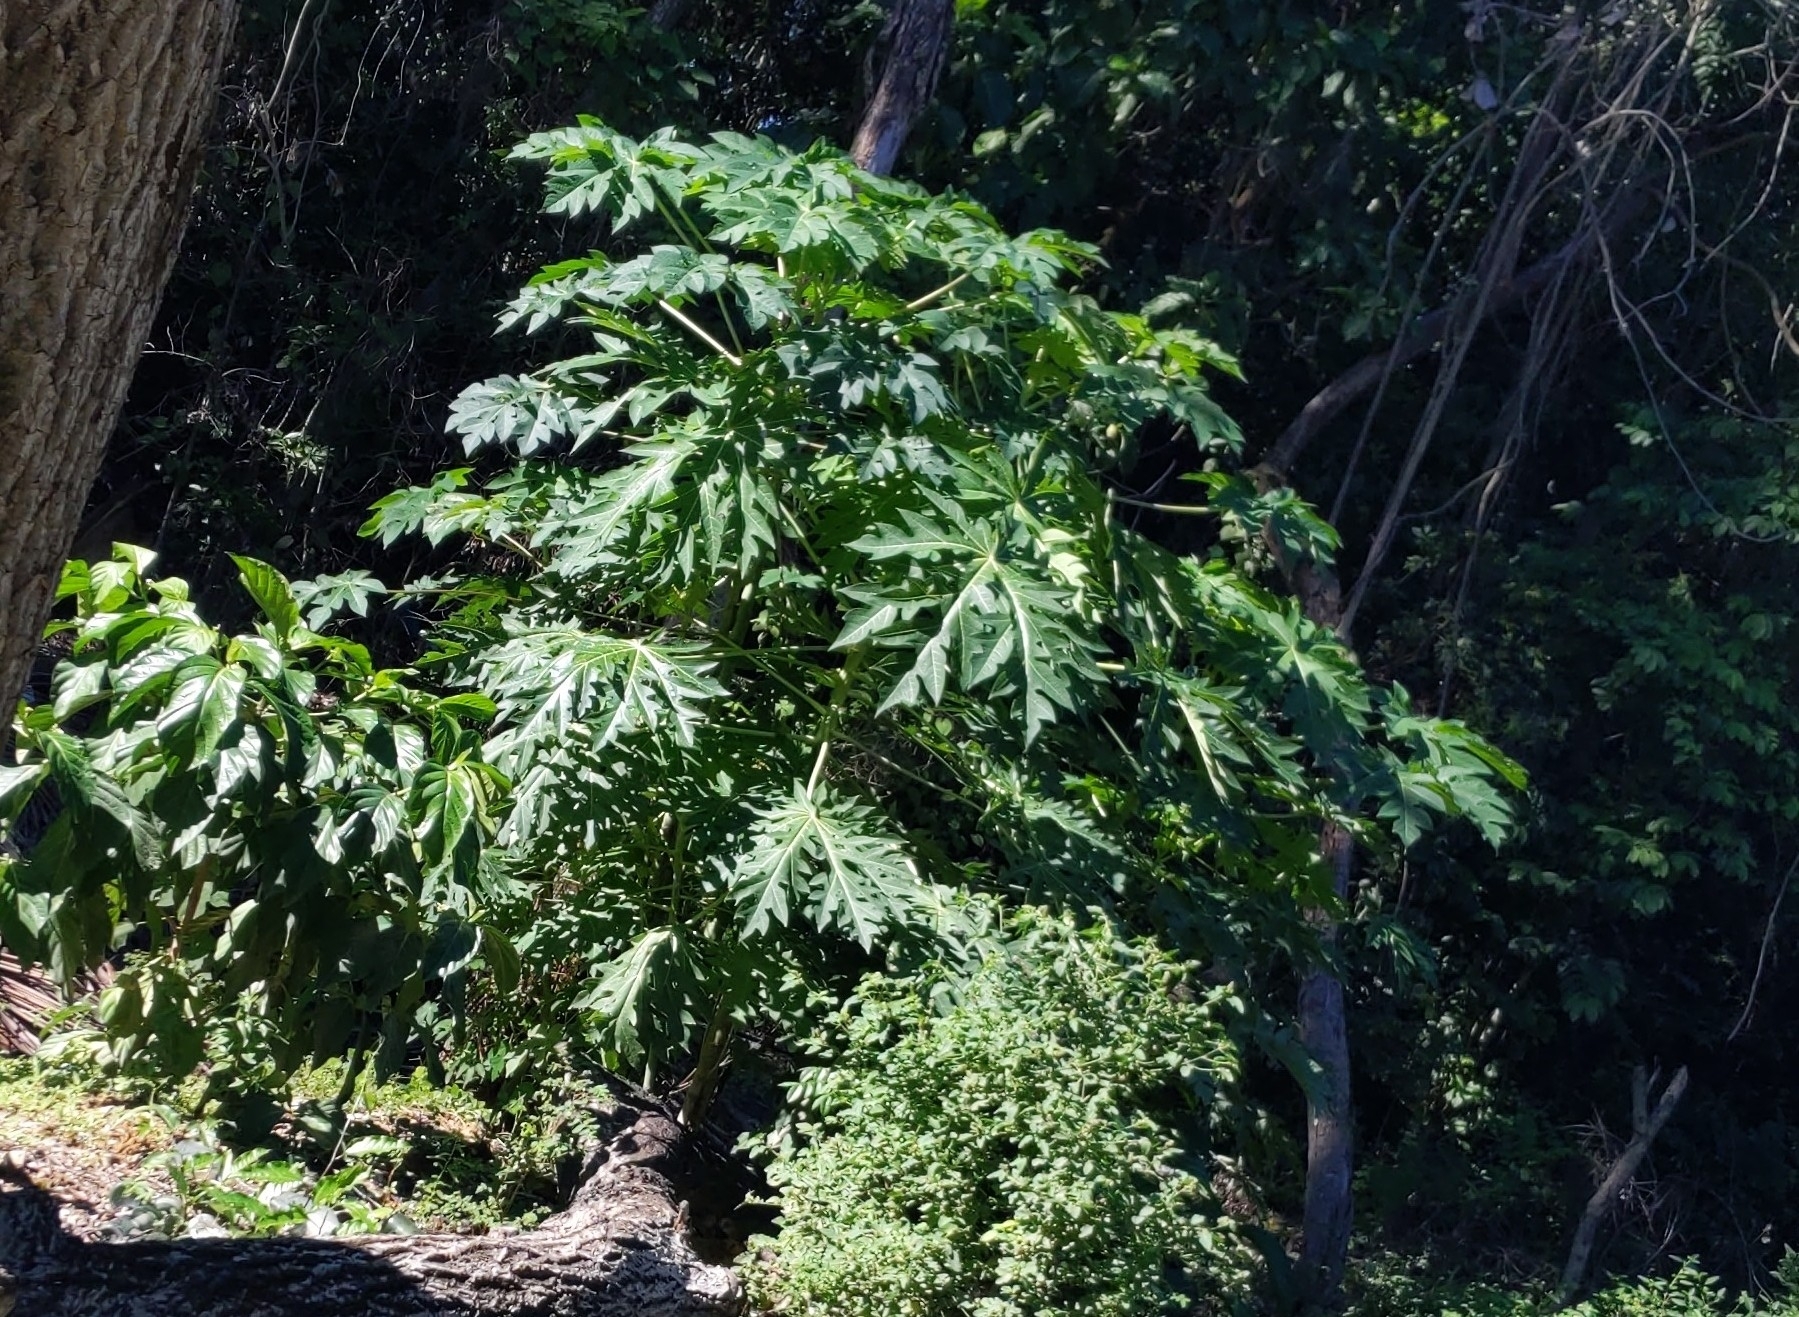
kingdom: Plantae
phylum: Tracheophyta
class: Magnoliopsida
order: Brassicales
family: Caricaceae
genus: Carica
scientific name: Carica papaya
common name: Papaya
